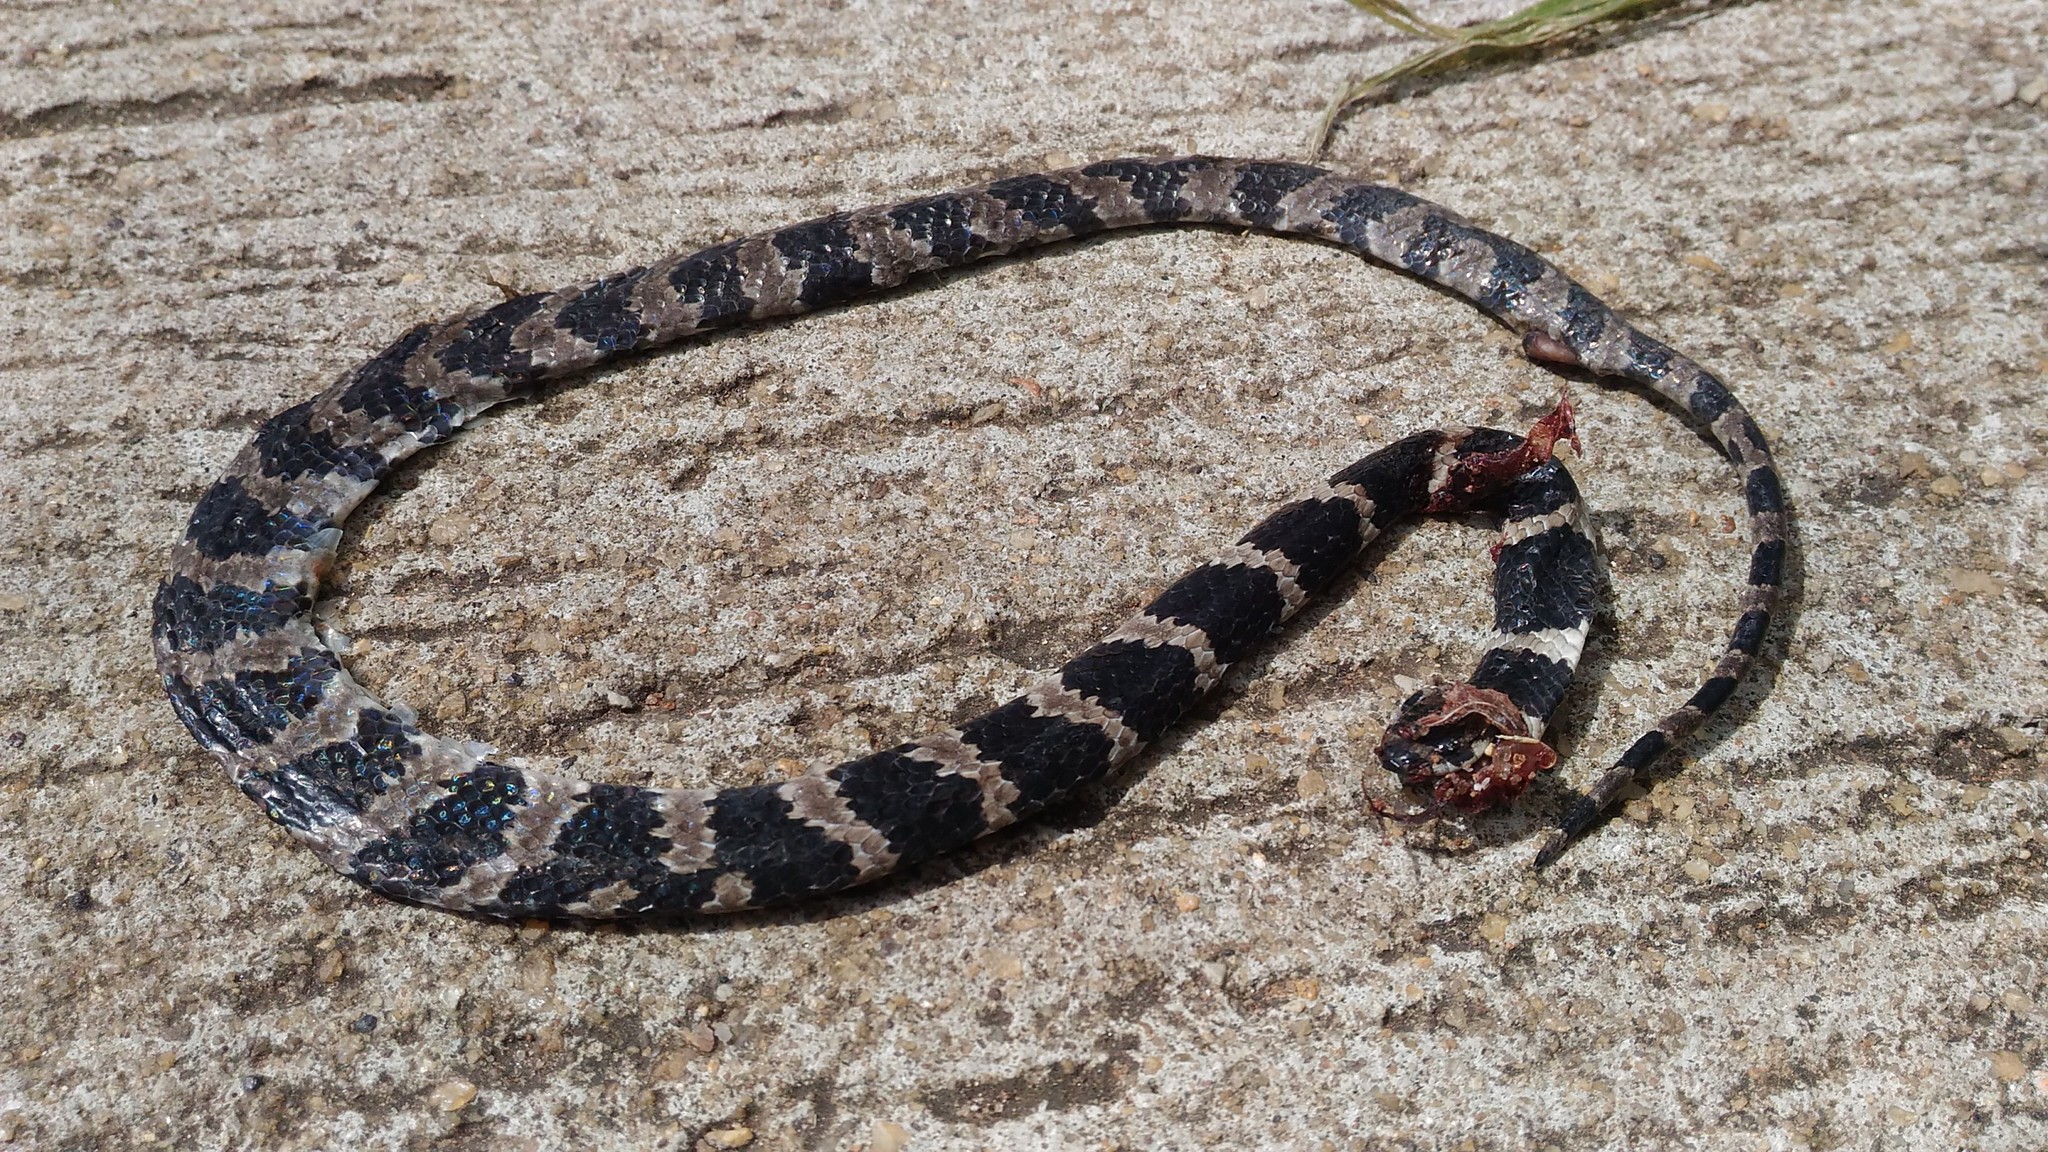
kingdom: Animalia
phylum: Chordata
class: Squamata
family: Colubridae
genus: Dipsas
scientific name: Dipsas mikanii
